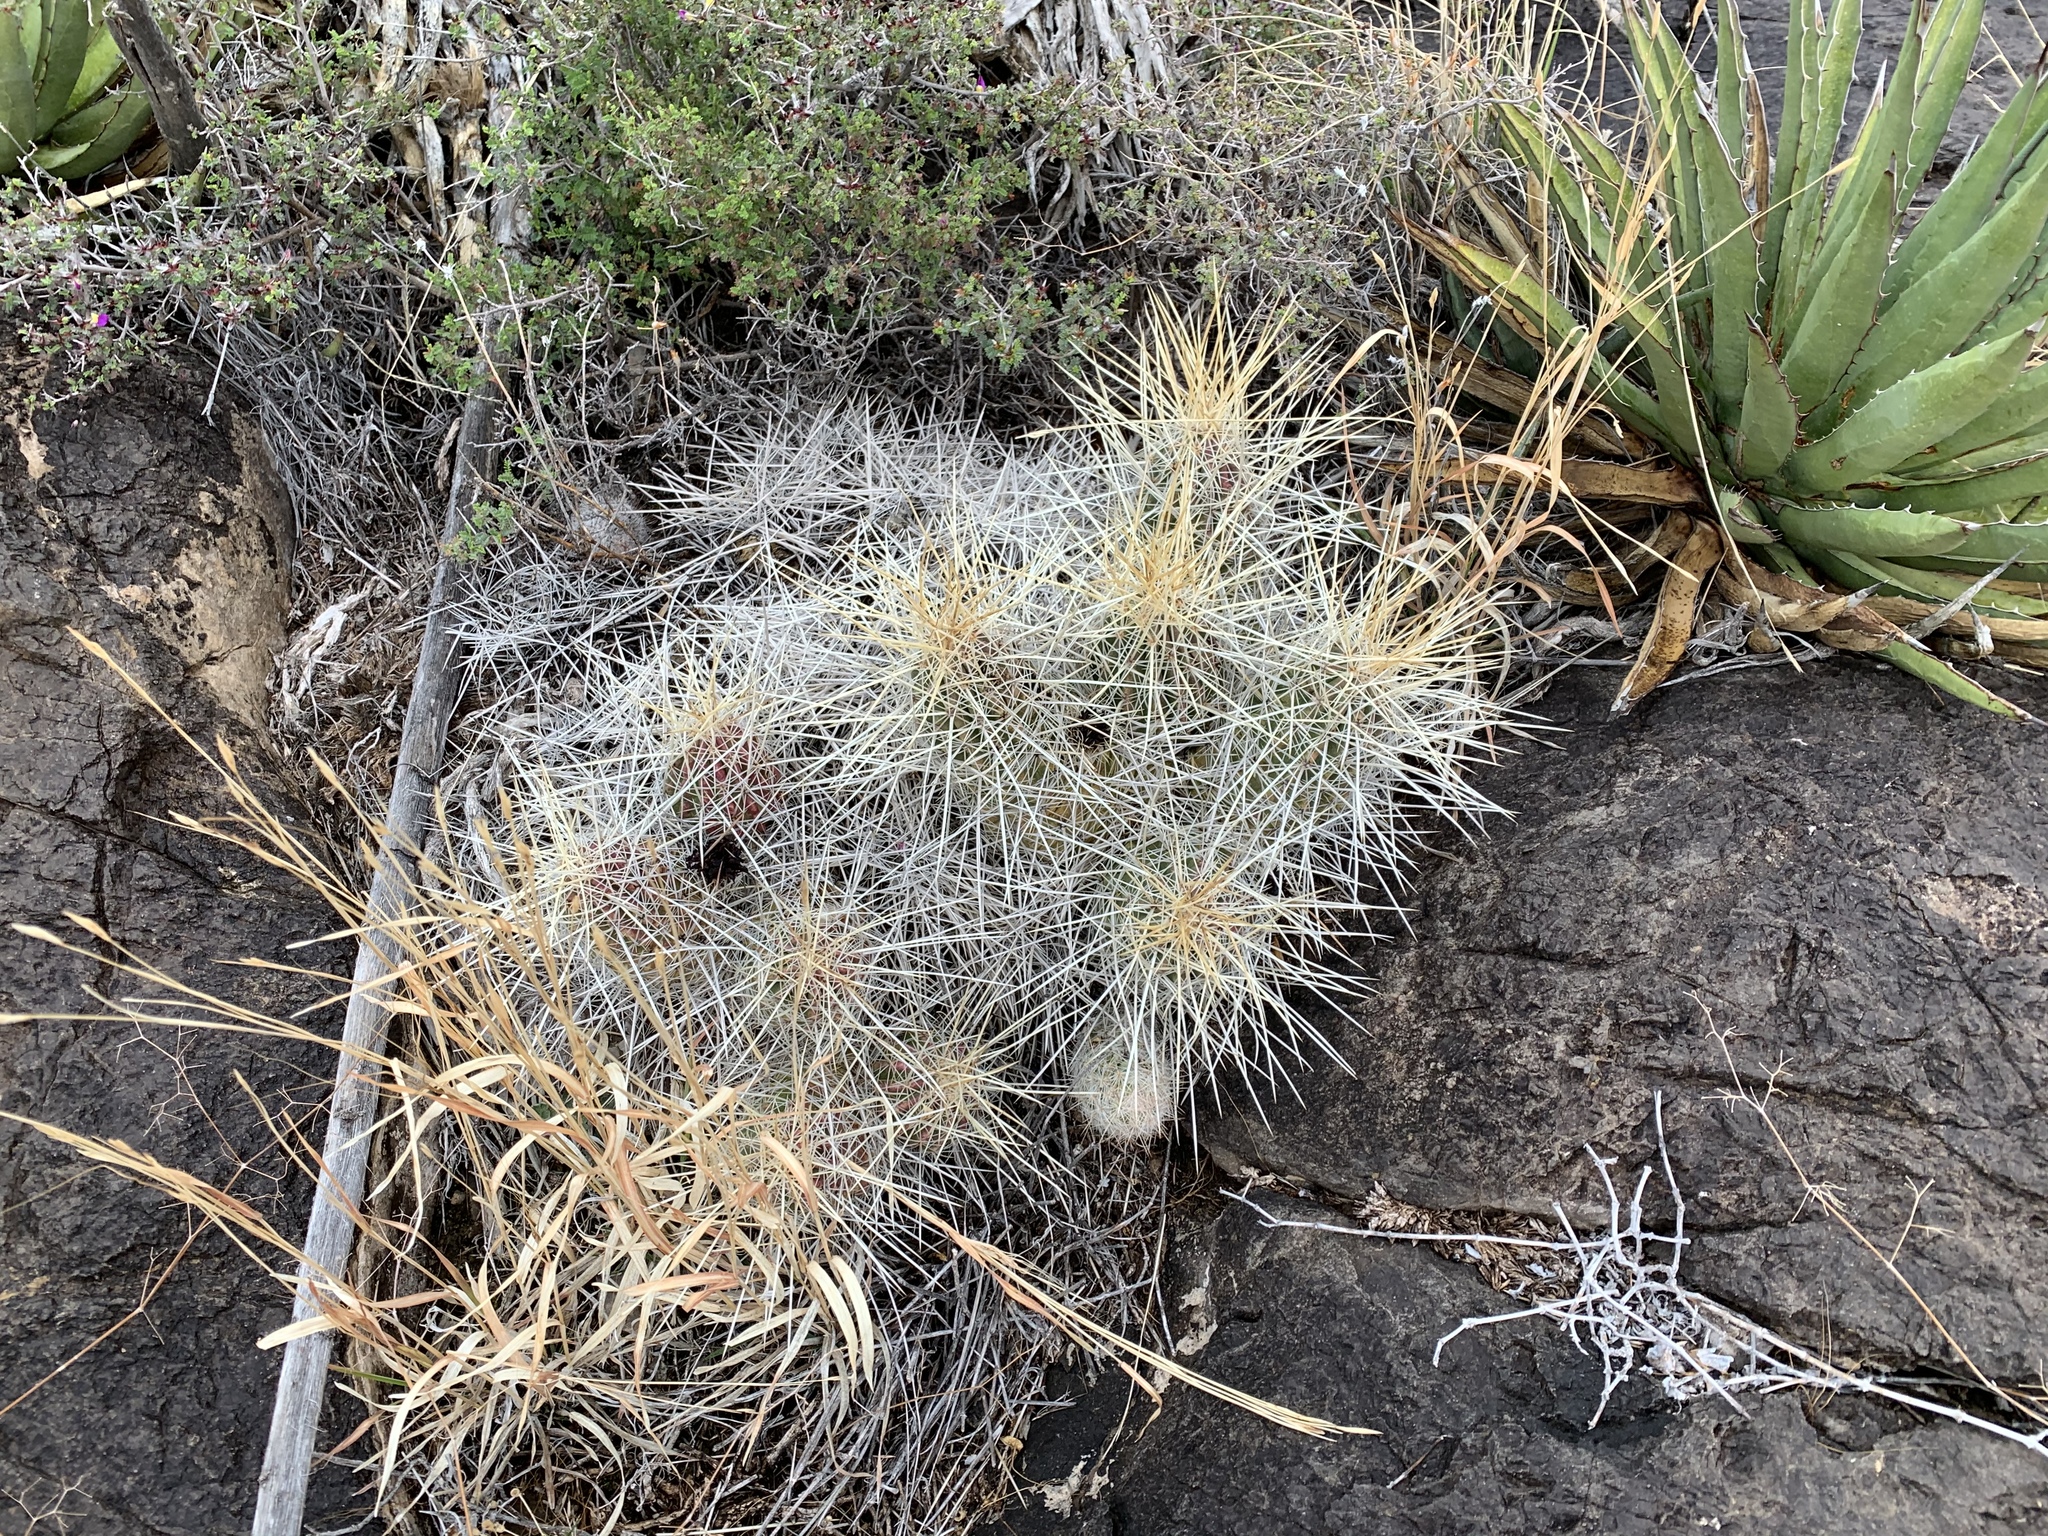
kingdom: Plantae
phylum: Tracheophyta
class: Magnoliopsida
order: Caryophyllales
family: Cactaceae
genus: Echinocereus
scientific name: Echinocereus stramineus
